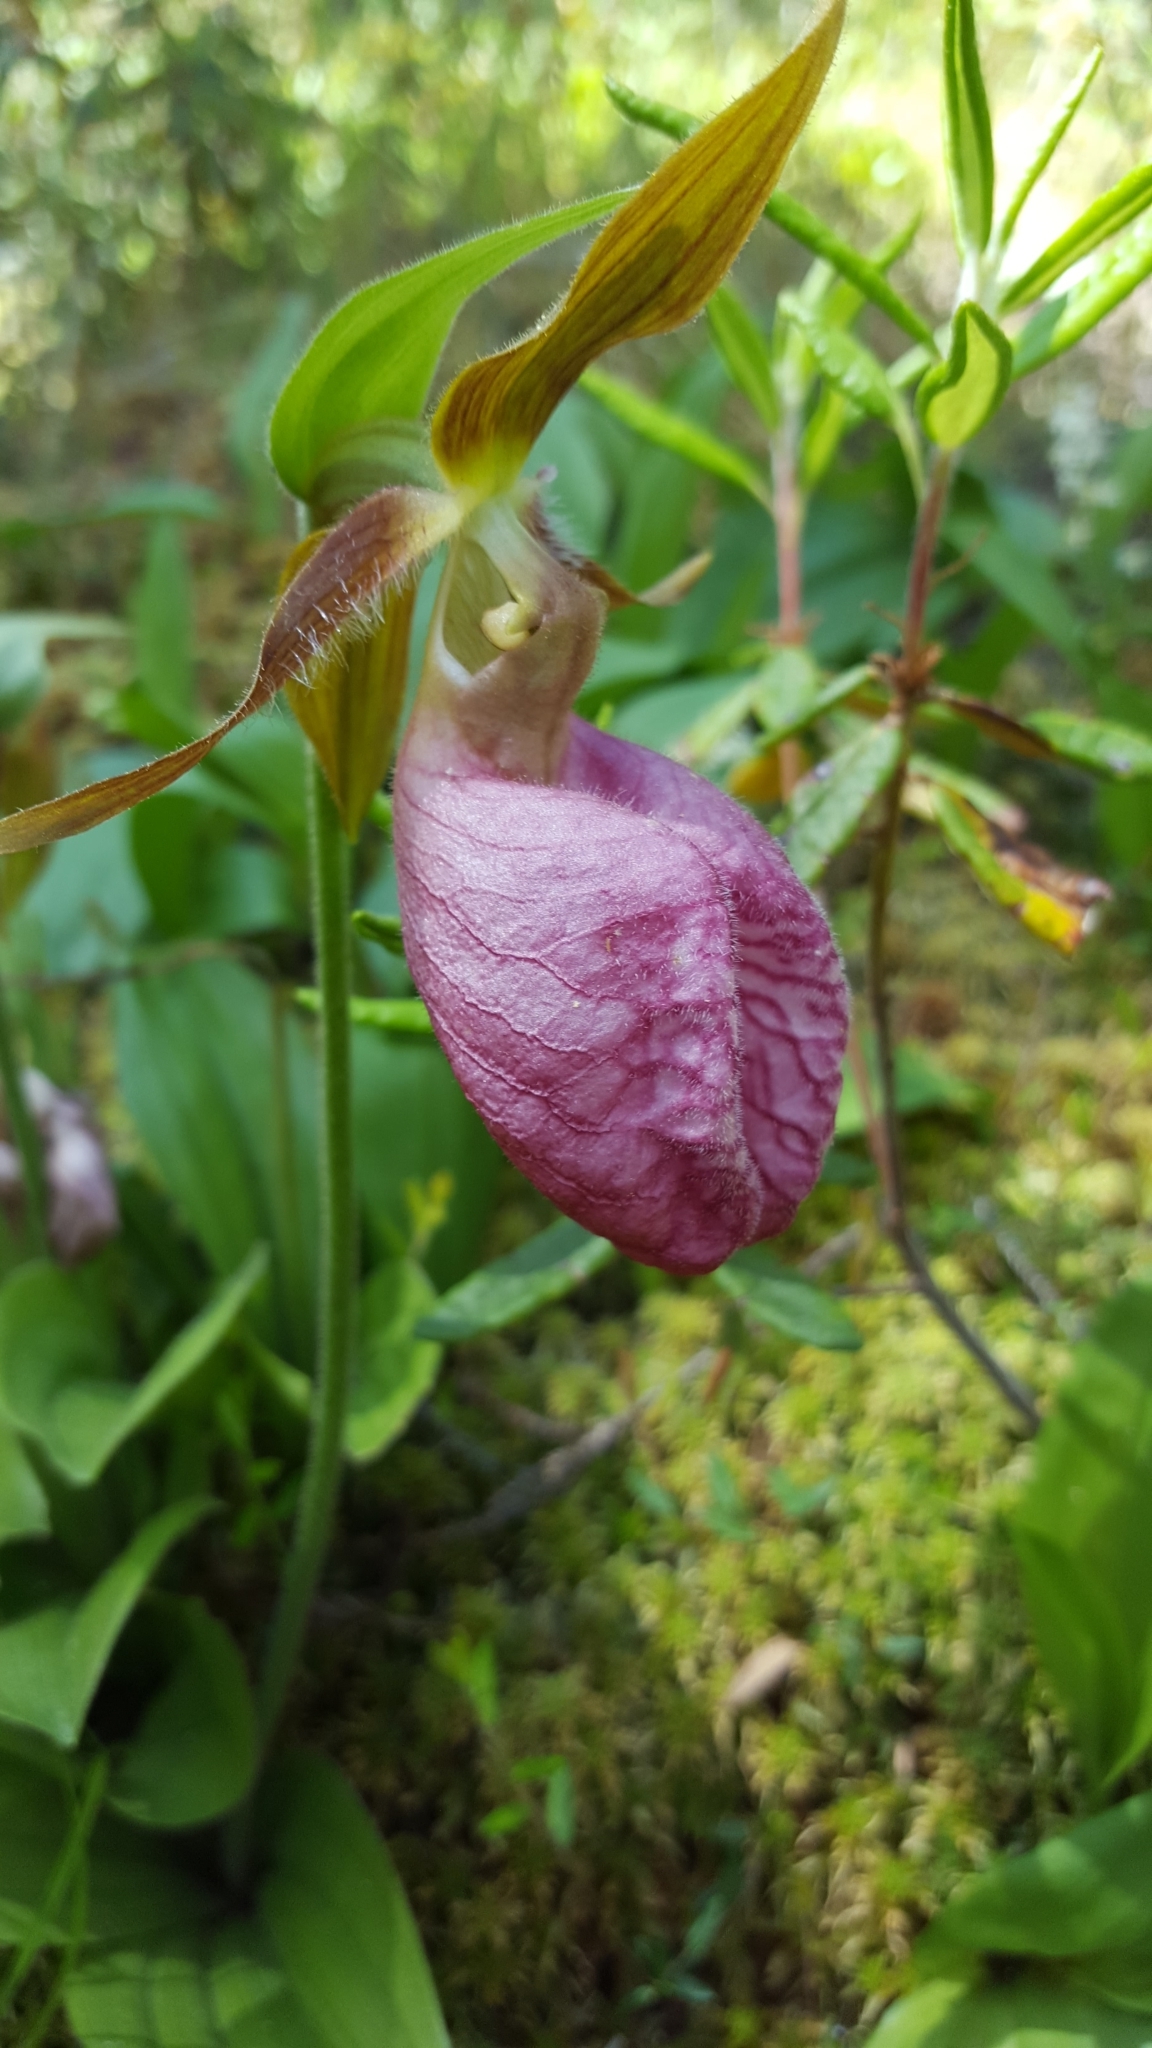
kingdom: Plantae
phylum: Tracheophyta
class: Liliopsida
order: Asparagales
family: Orchidaceae
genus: Cypripedium
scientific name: Cypripedium acaule
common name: Pink lady's-slipper
